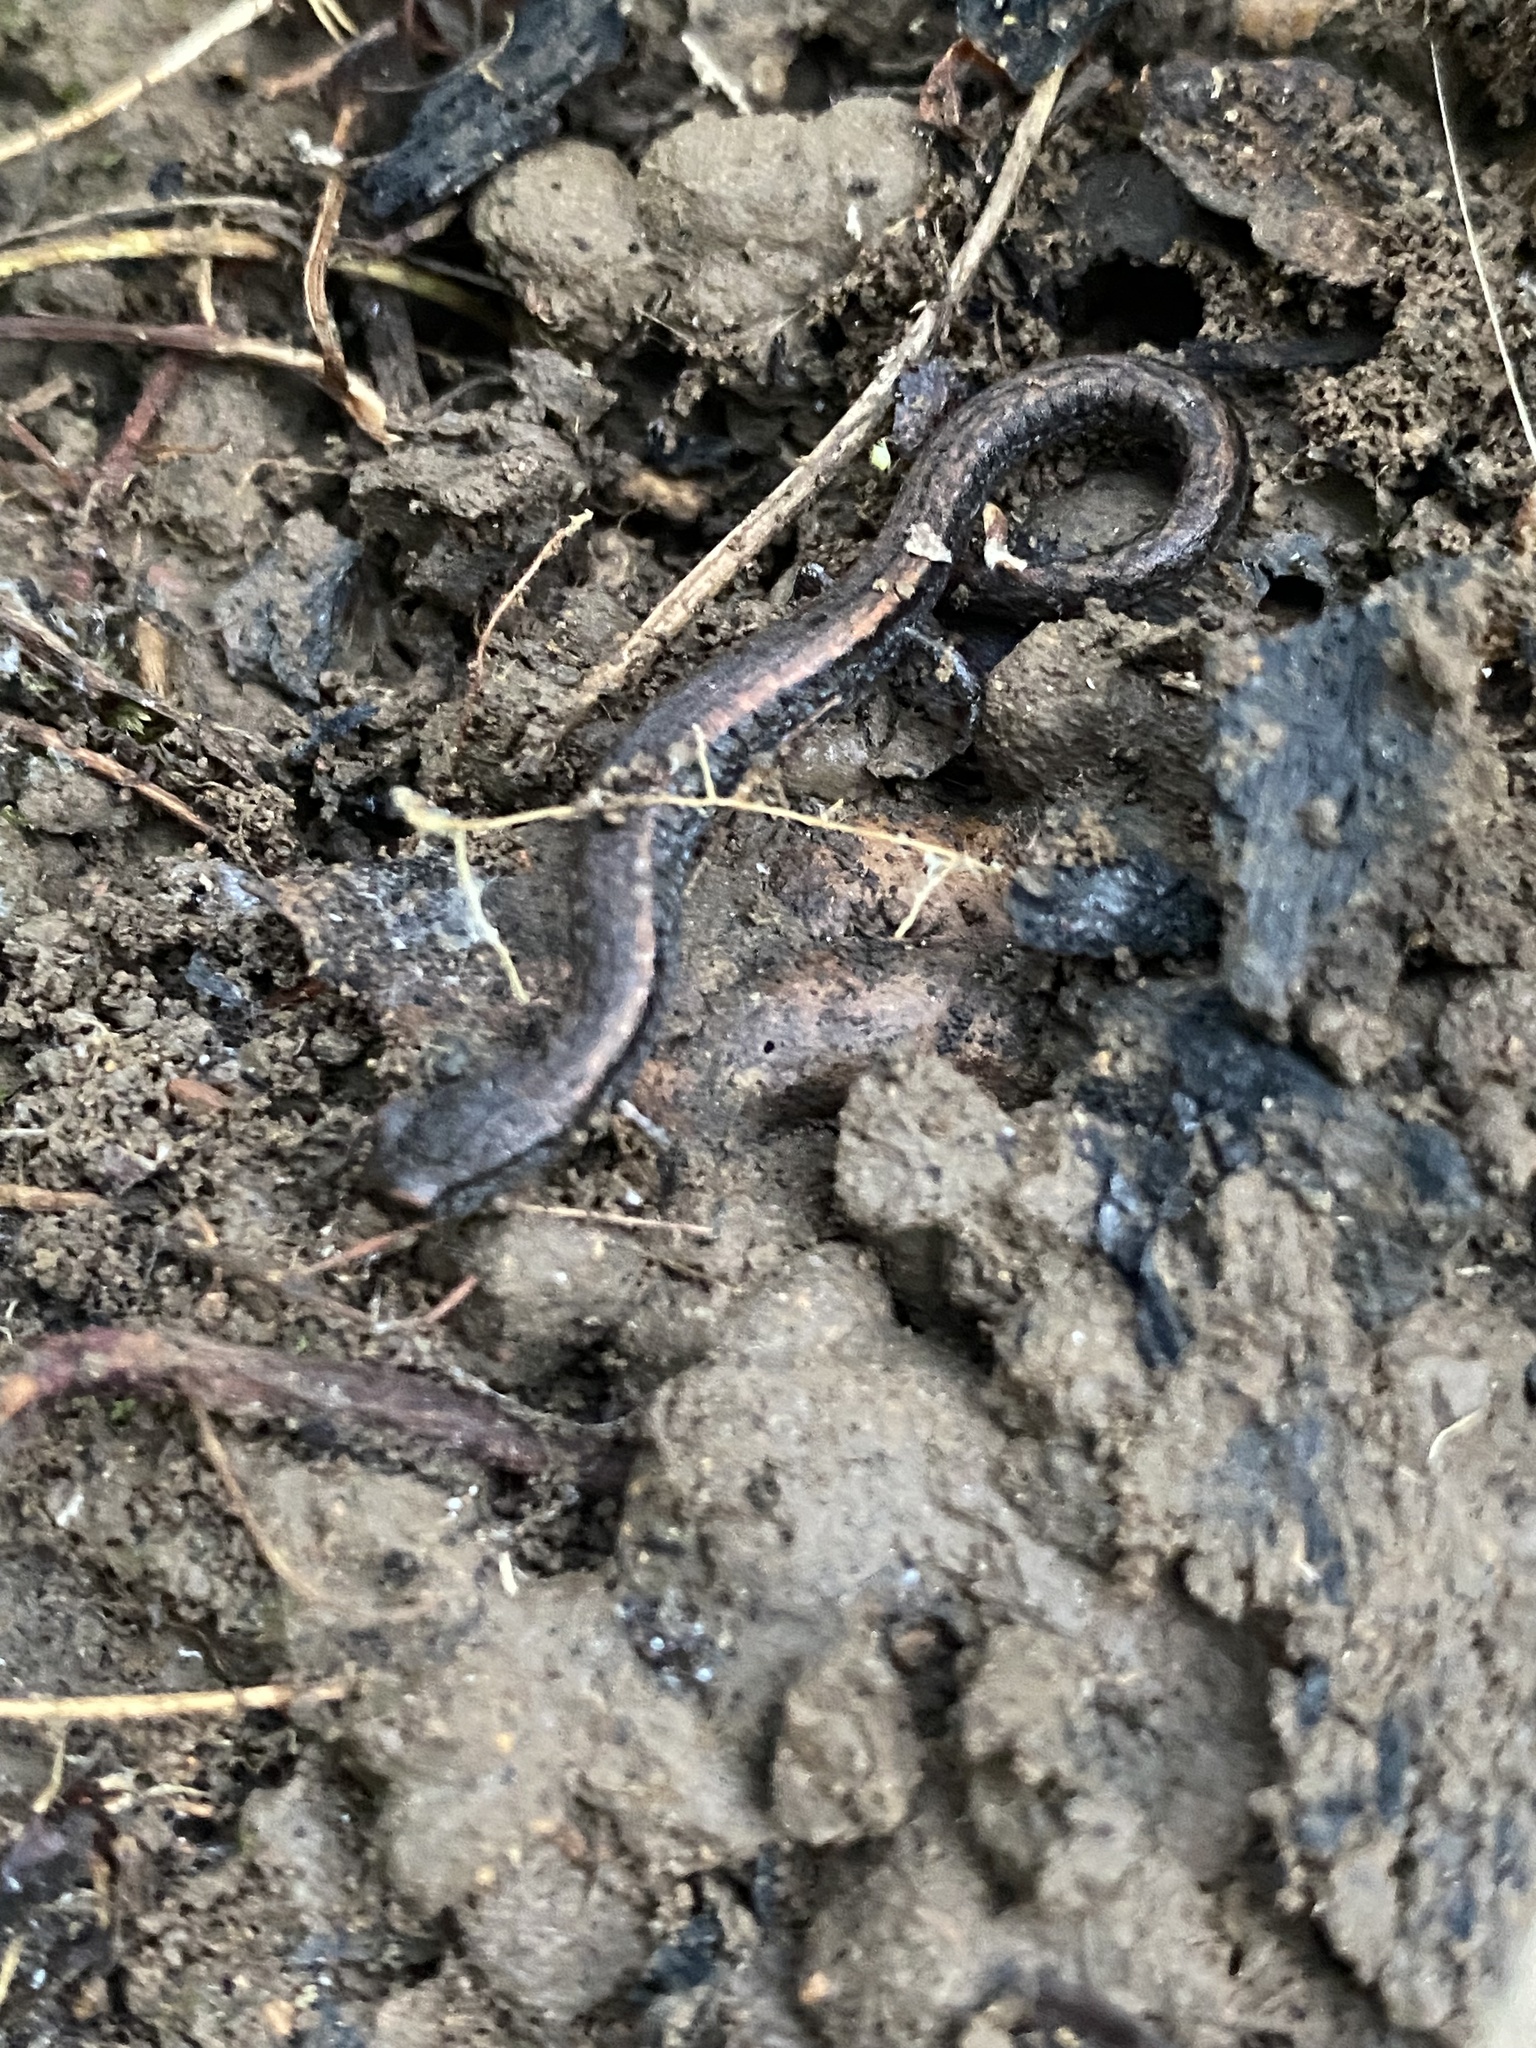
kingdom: Animalia
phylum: Chordata
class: Amphibia
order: Caudata
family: Plethodontidae
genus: Batrachoseps
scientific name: Batrachoseps nigriventris
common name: Black-bellied slender salamander
